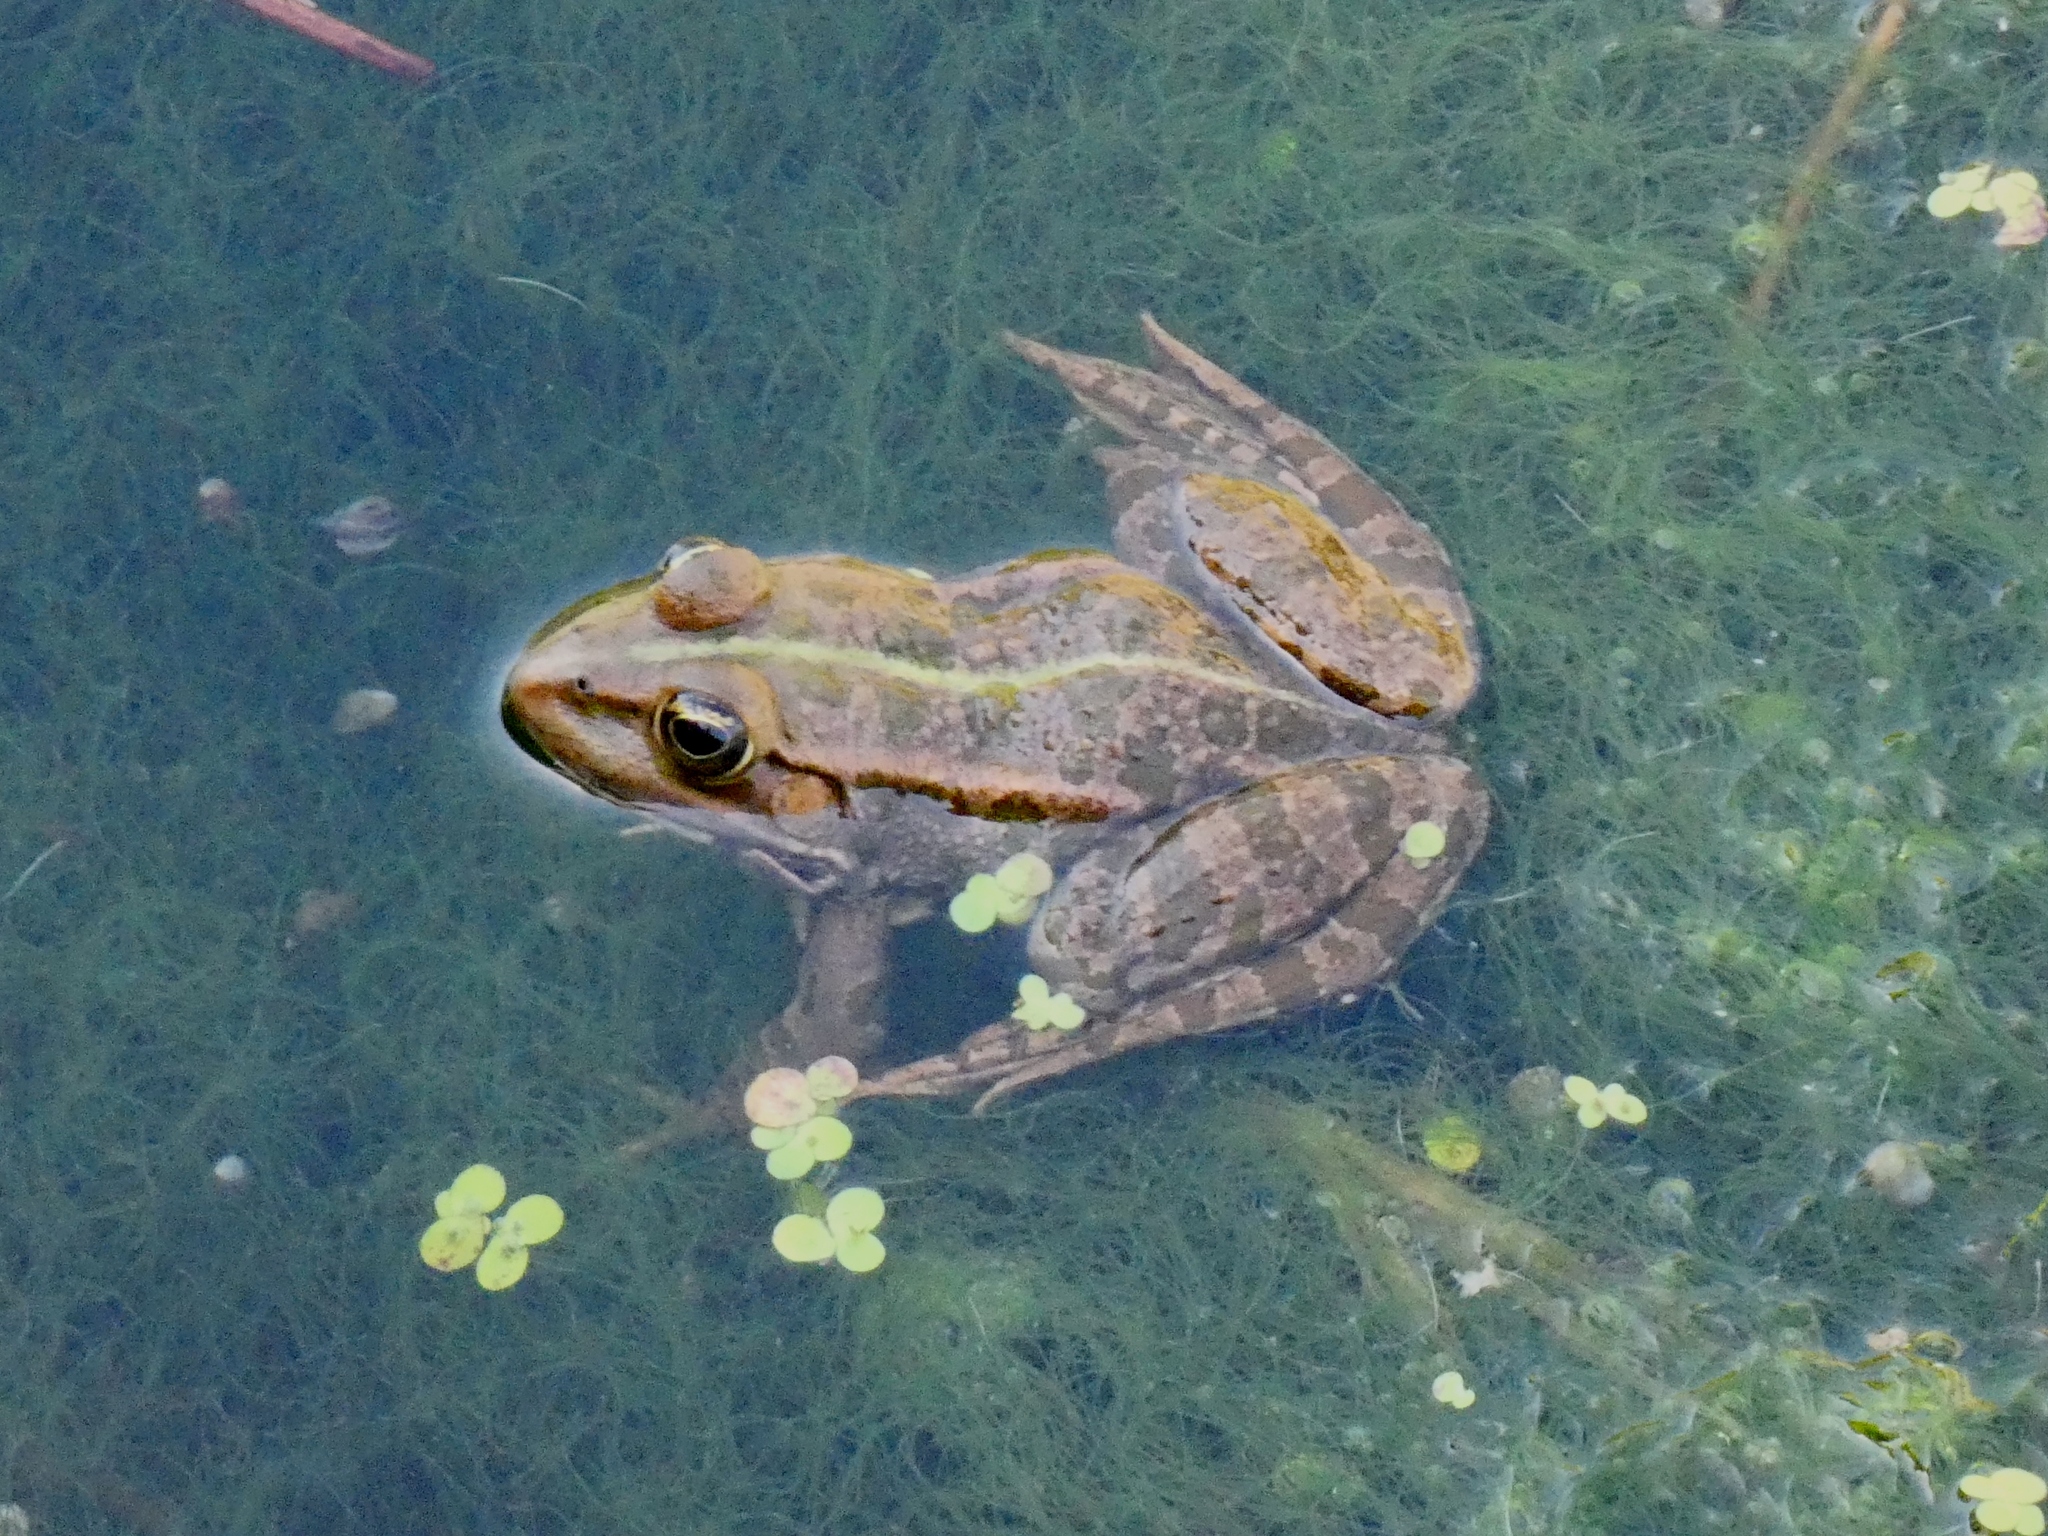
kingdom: Animalia
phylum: Chordata
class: Amphibia
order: Anura
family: Ranidae
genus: Pelophylax
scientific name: Pelophylax ridibundus
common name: Marsh frog
